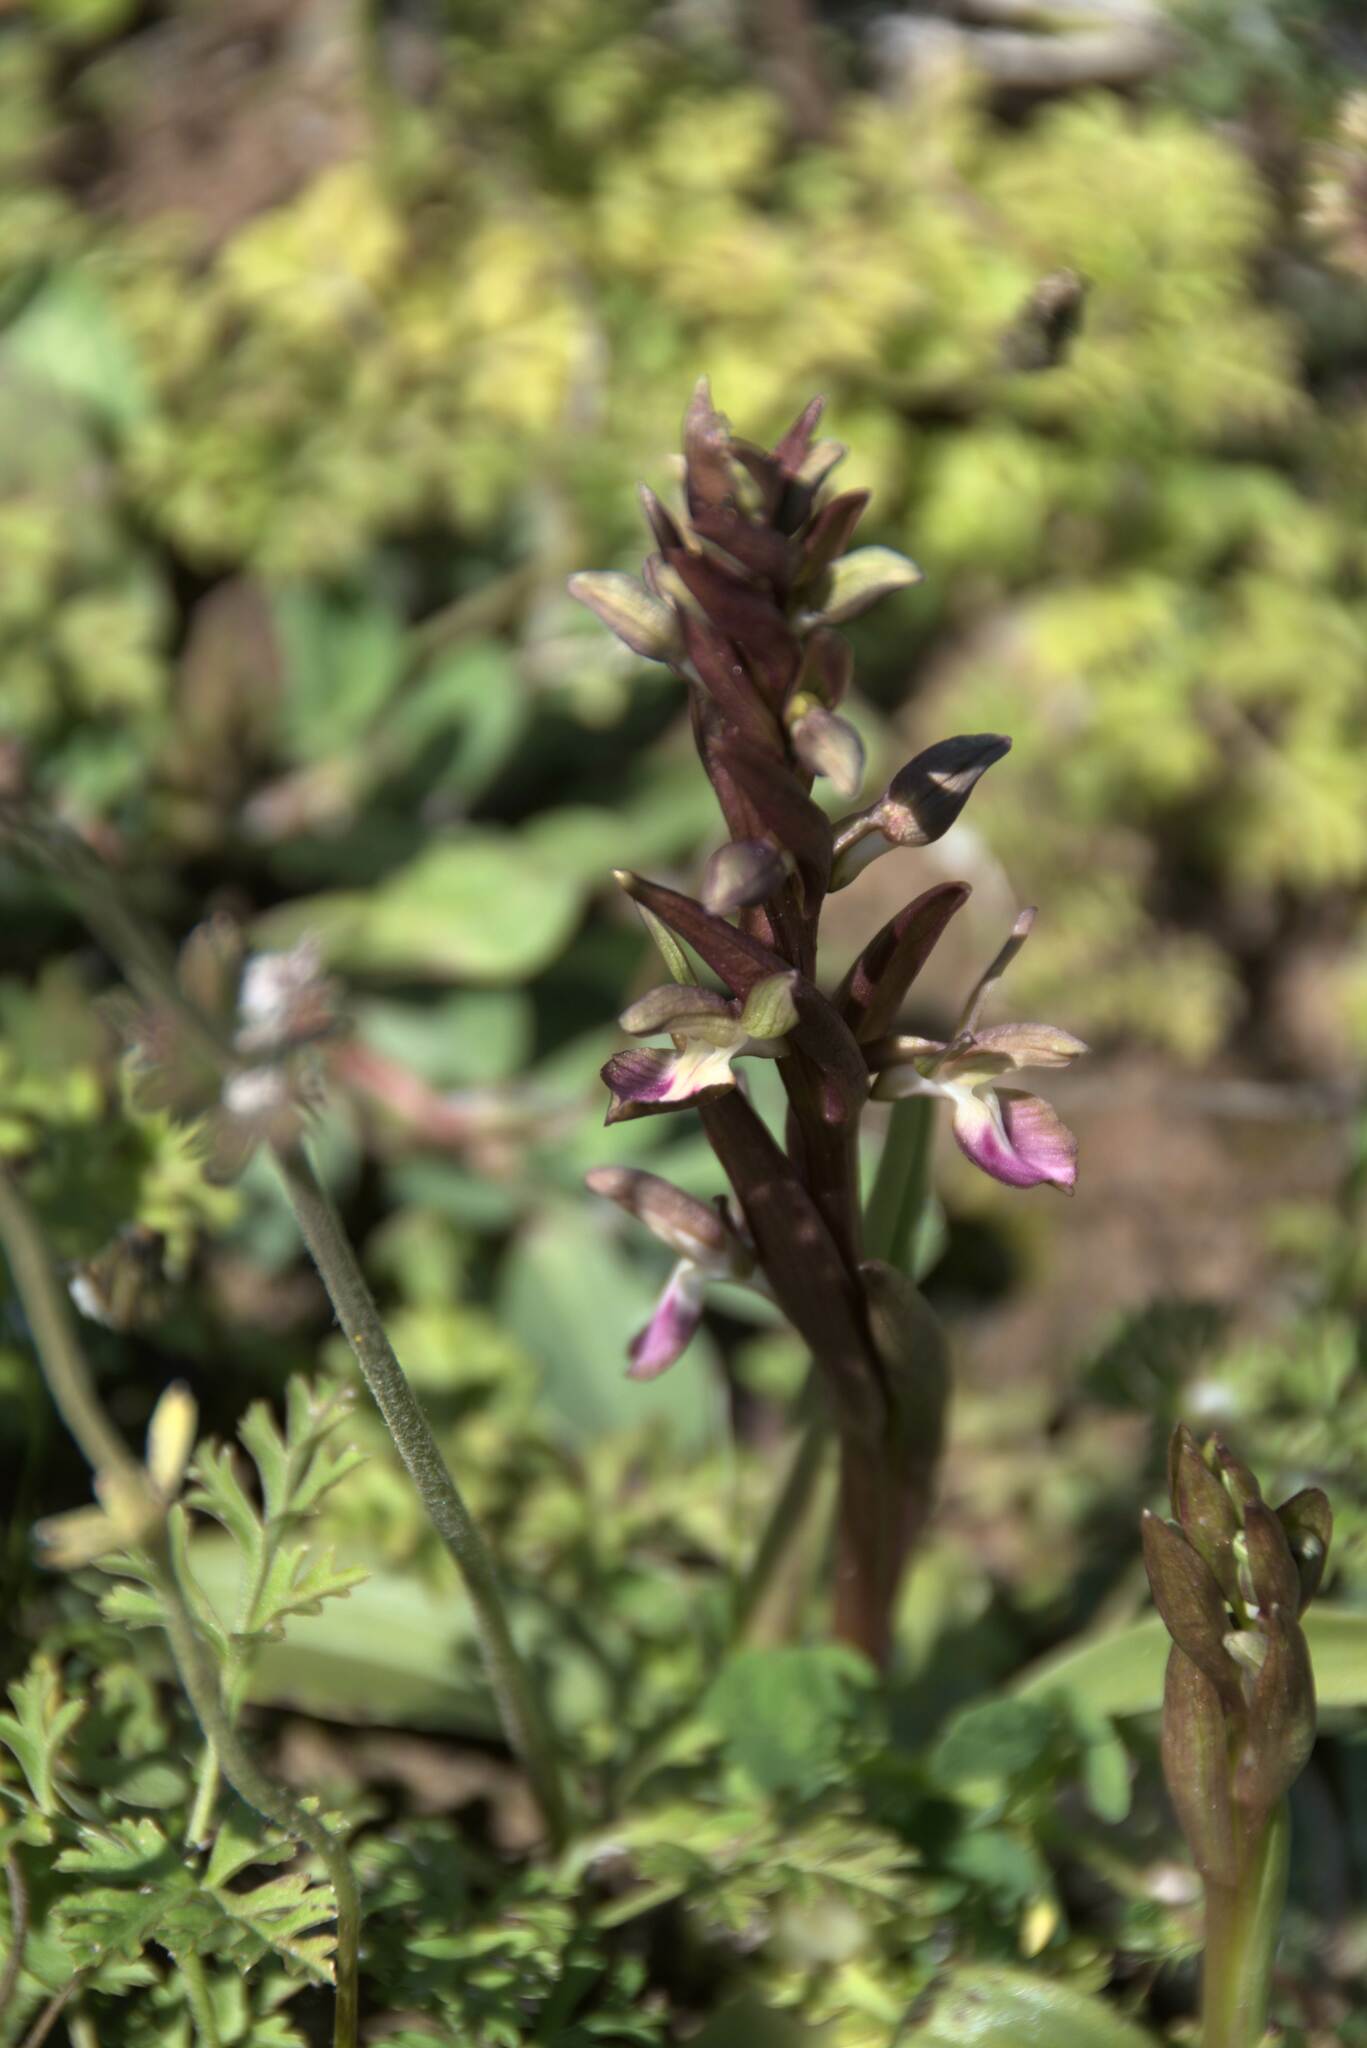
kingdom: Plantae
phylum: Tracheophyta
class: Liliopsida
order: Asparagales
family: Orchidaceae
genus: Anacamptis
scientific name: Anacamptis collina
